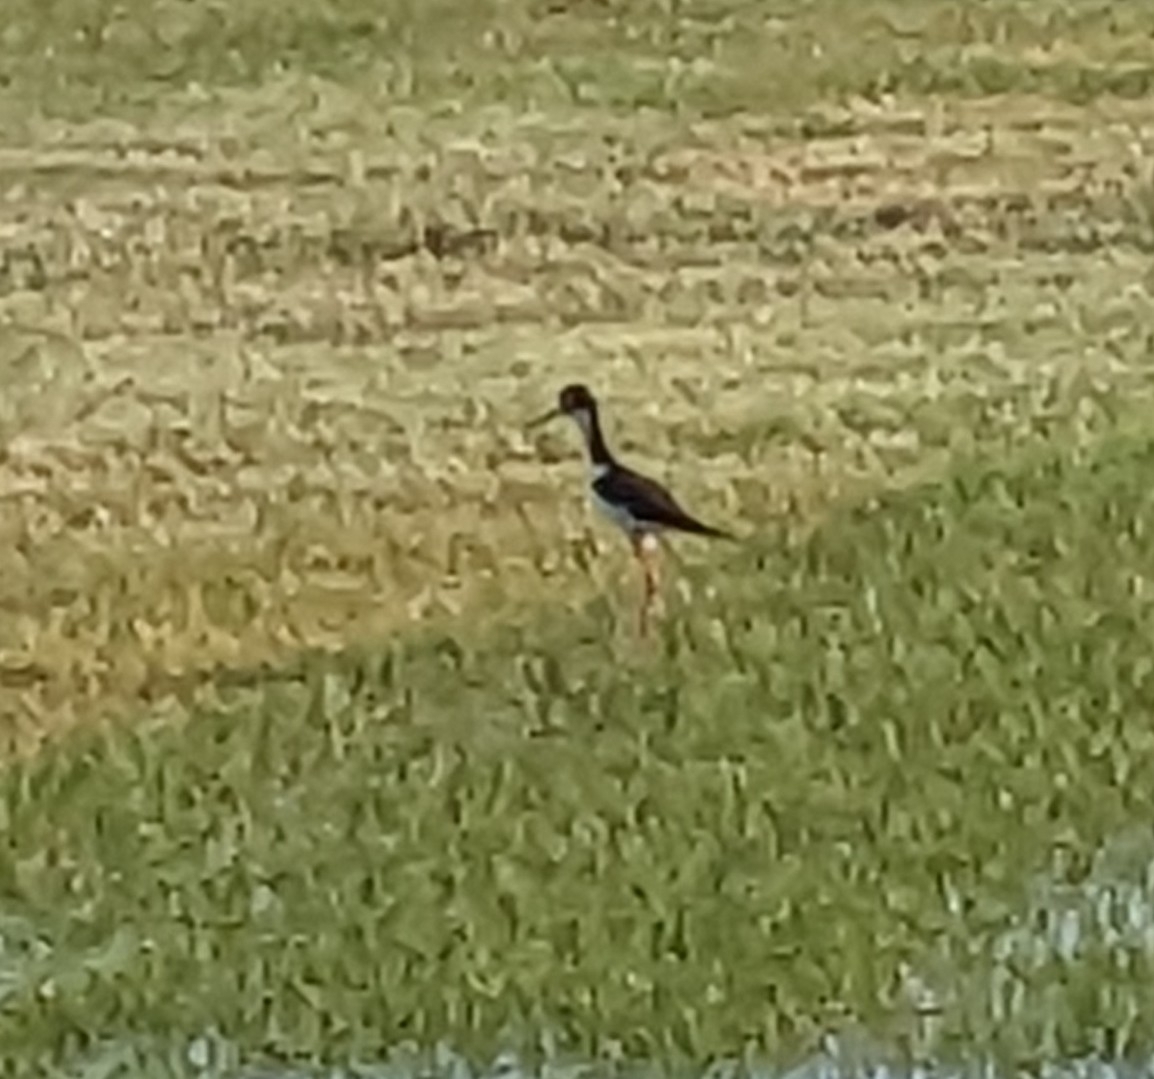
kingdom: Animalia
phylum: Chordata
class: Aves
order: Charadriiformes
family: Recurvirostridae
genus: Himantopus
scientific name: Himantopus mexicanus
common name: Black-necked stilt
